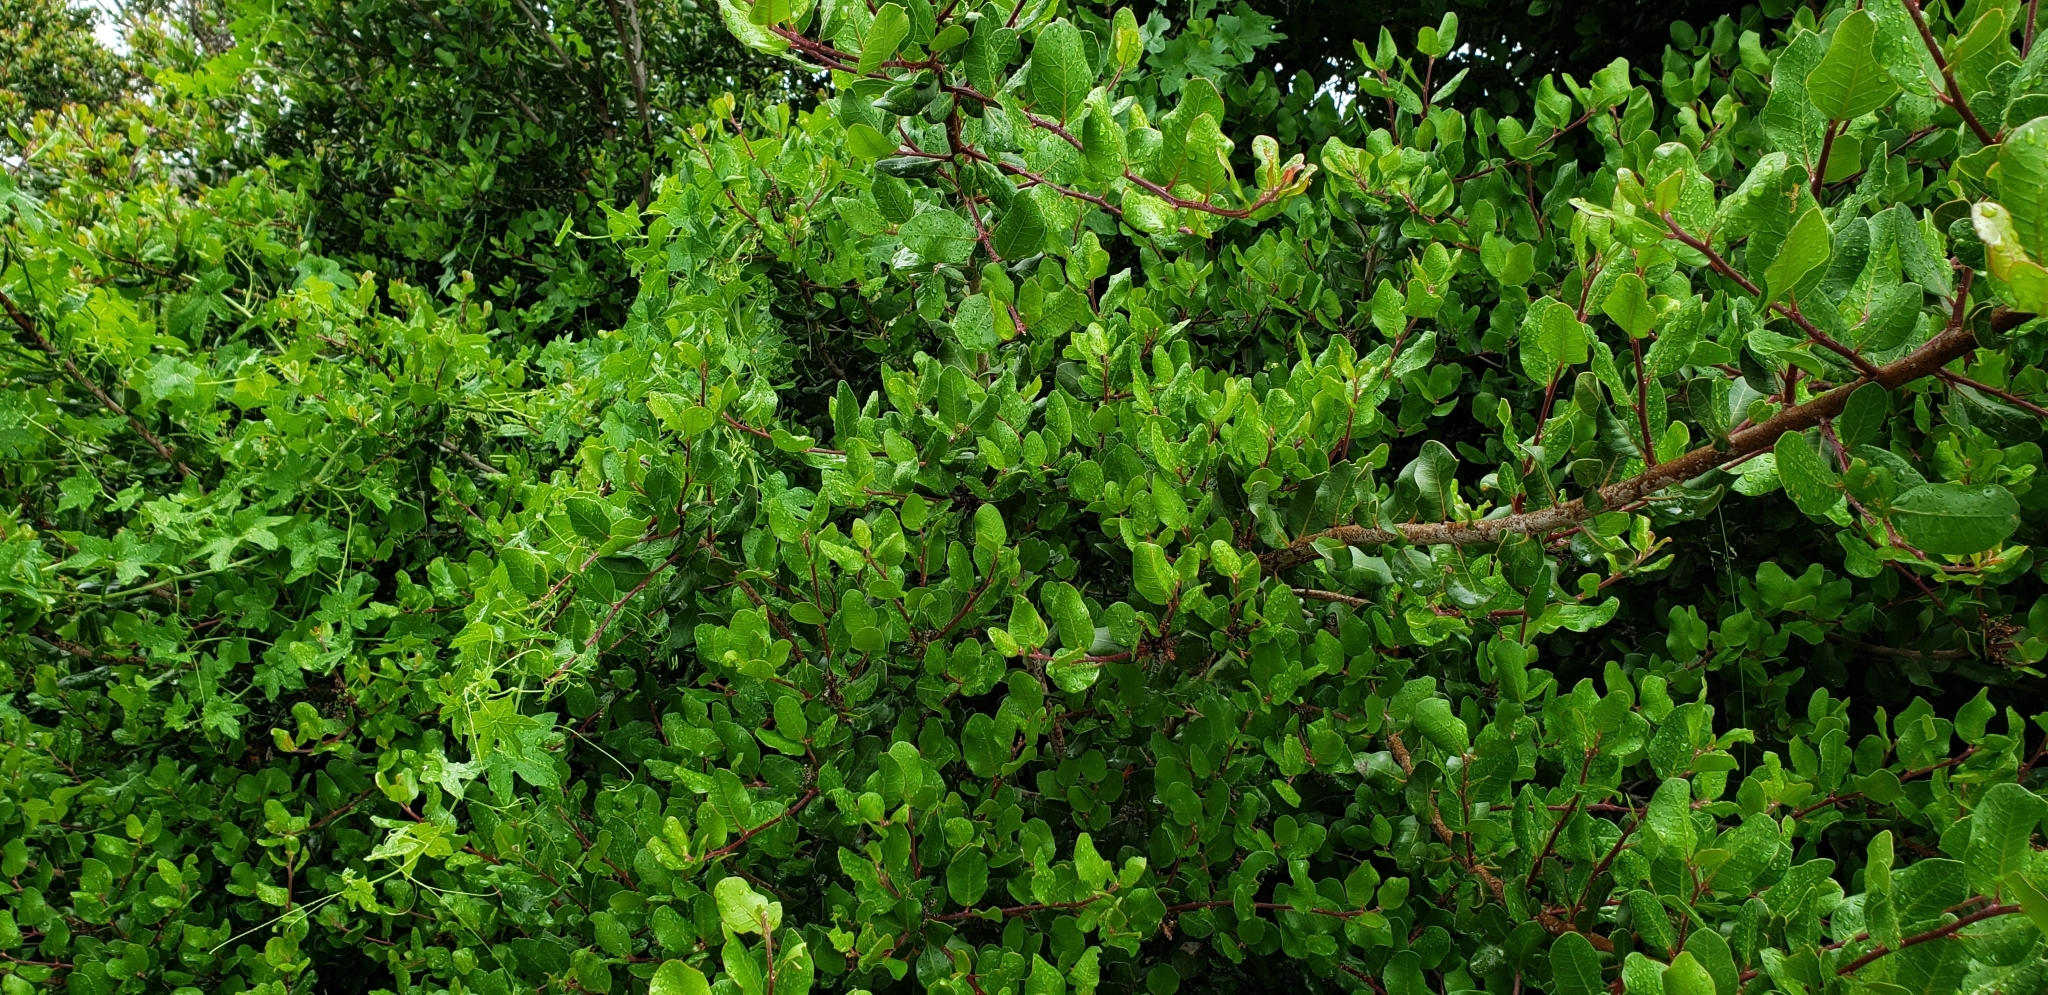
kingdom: Plantae
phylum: Tracheophyta
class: Magnoliopsida
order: Sapindales
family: Anacardiaceae
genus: Rhus
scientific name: Rhus integrifolia
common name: Lemonade sumac
